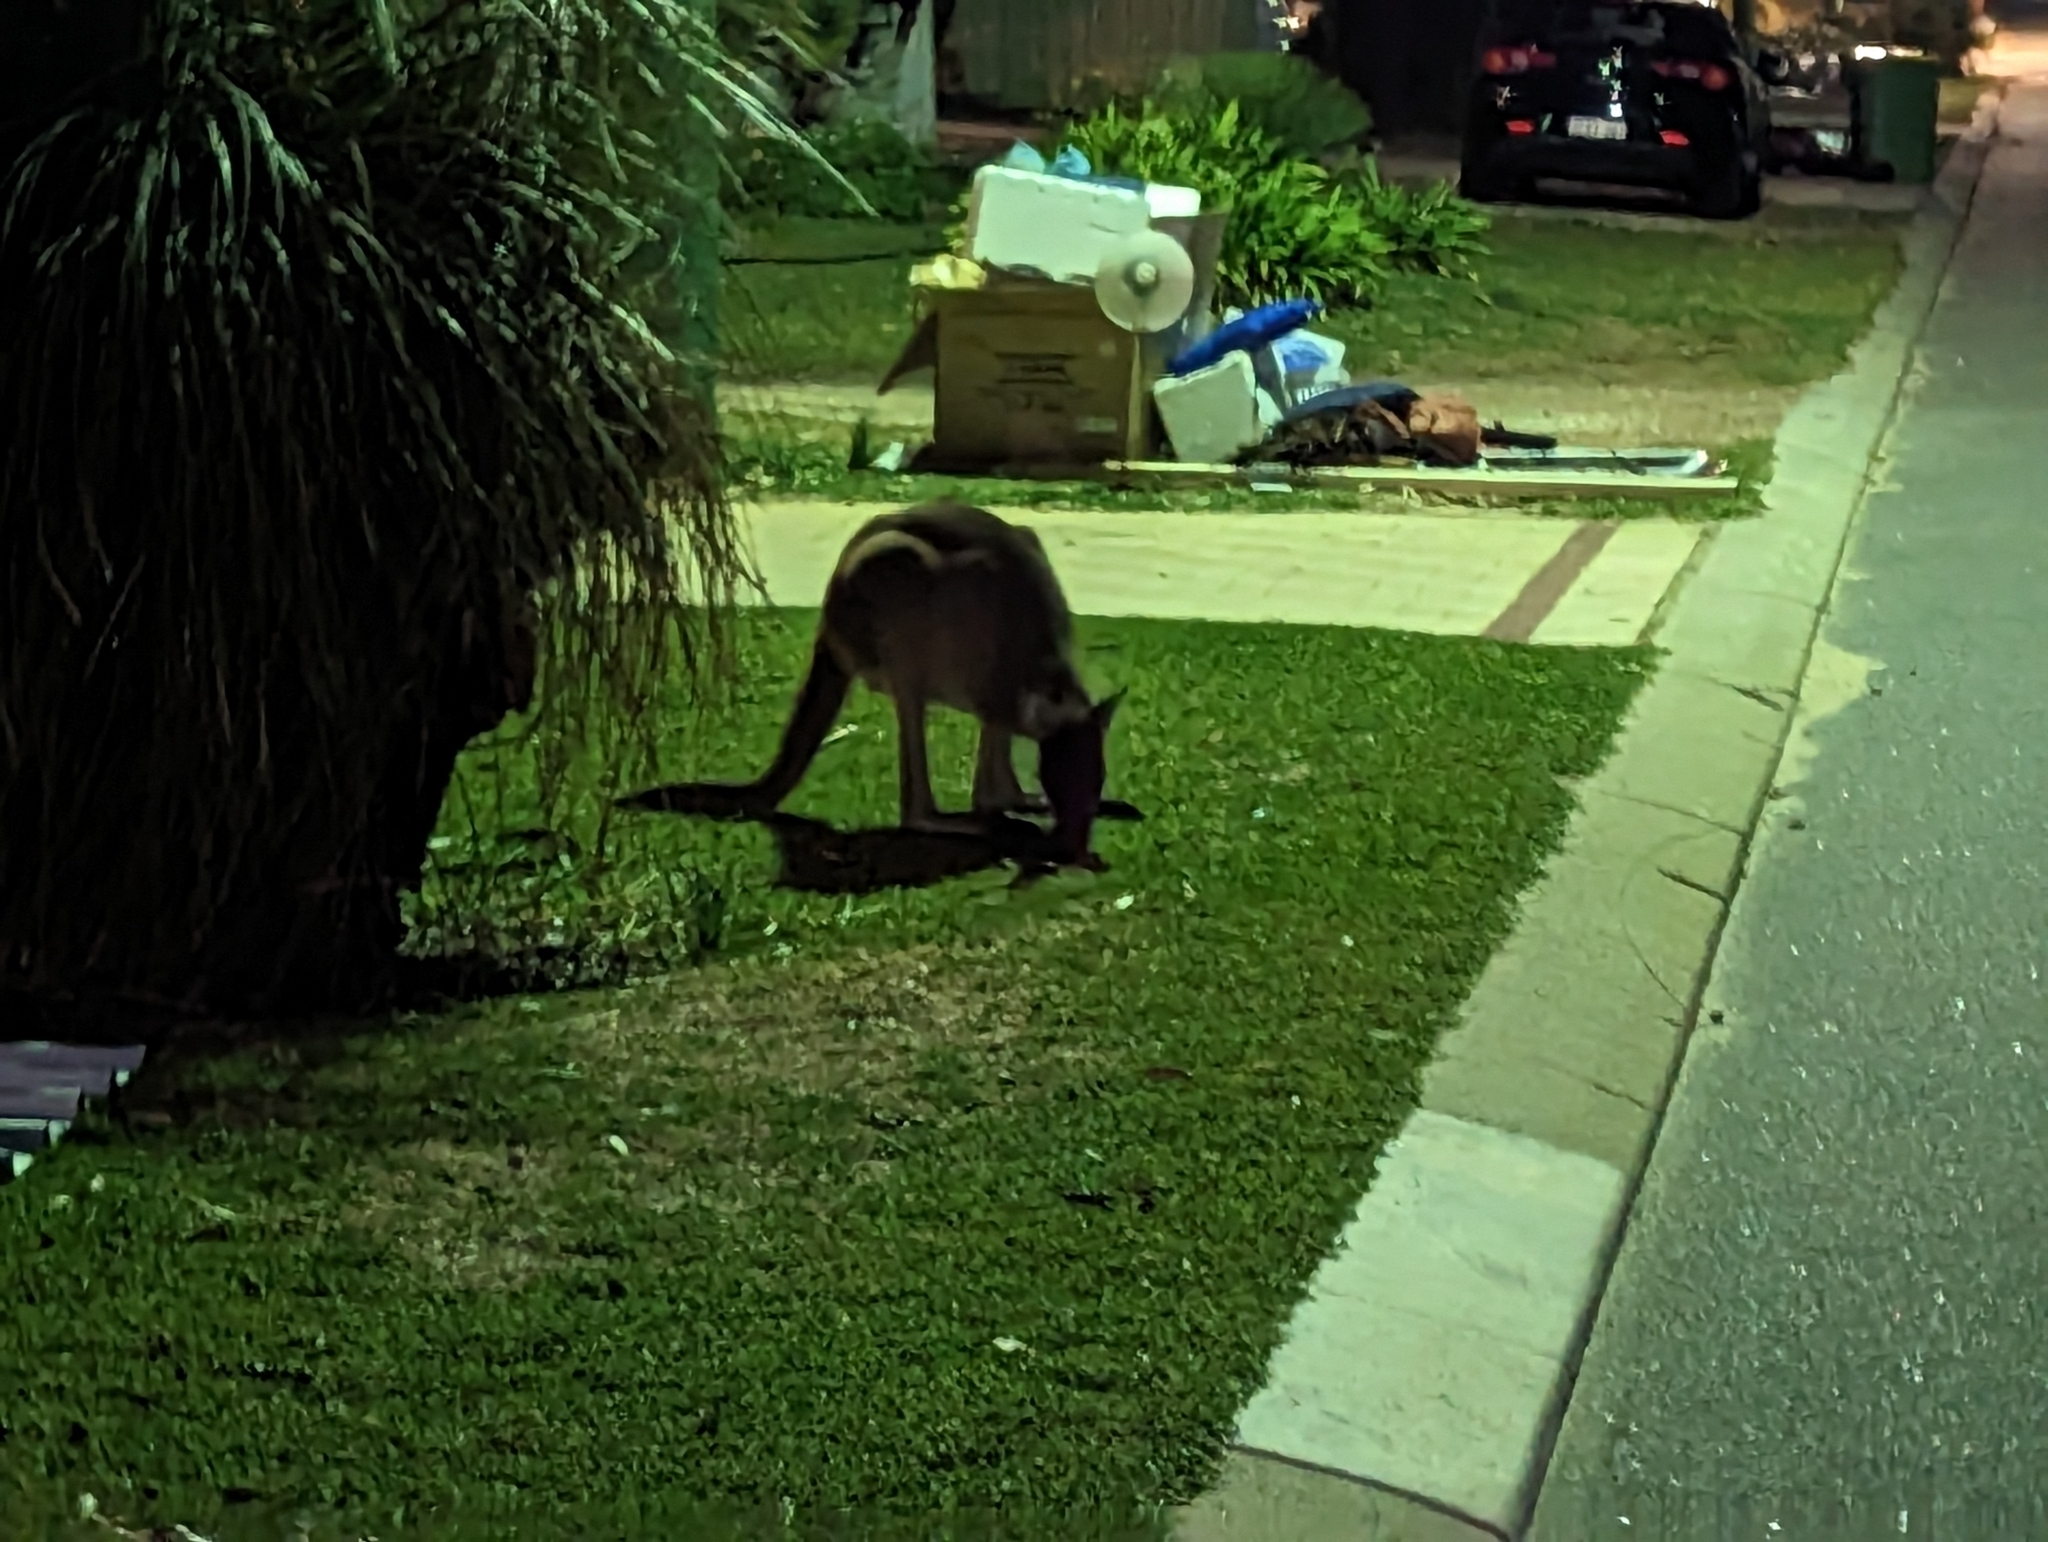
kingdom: Animalia
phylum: Chordata
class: Mammalia
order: Diprotodontia
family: Macropodidae
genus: Macropus
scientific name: Macropus fuliginosus
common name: Western grey kangaroo
